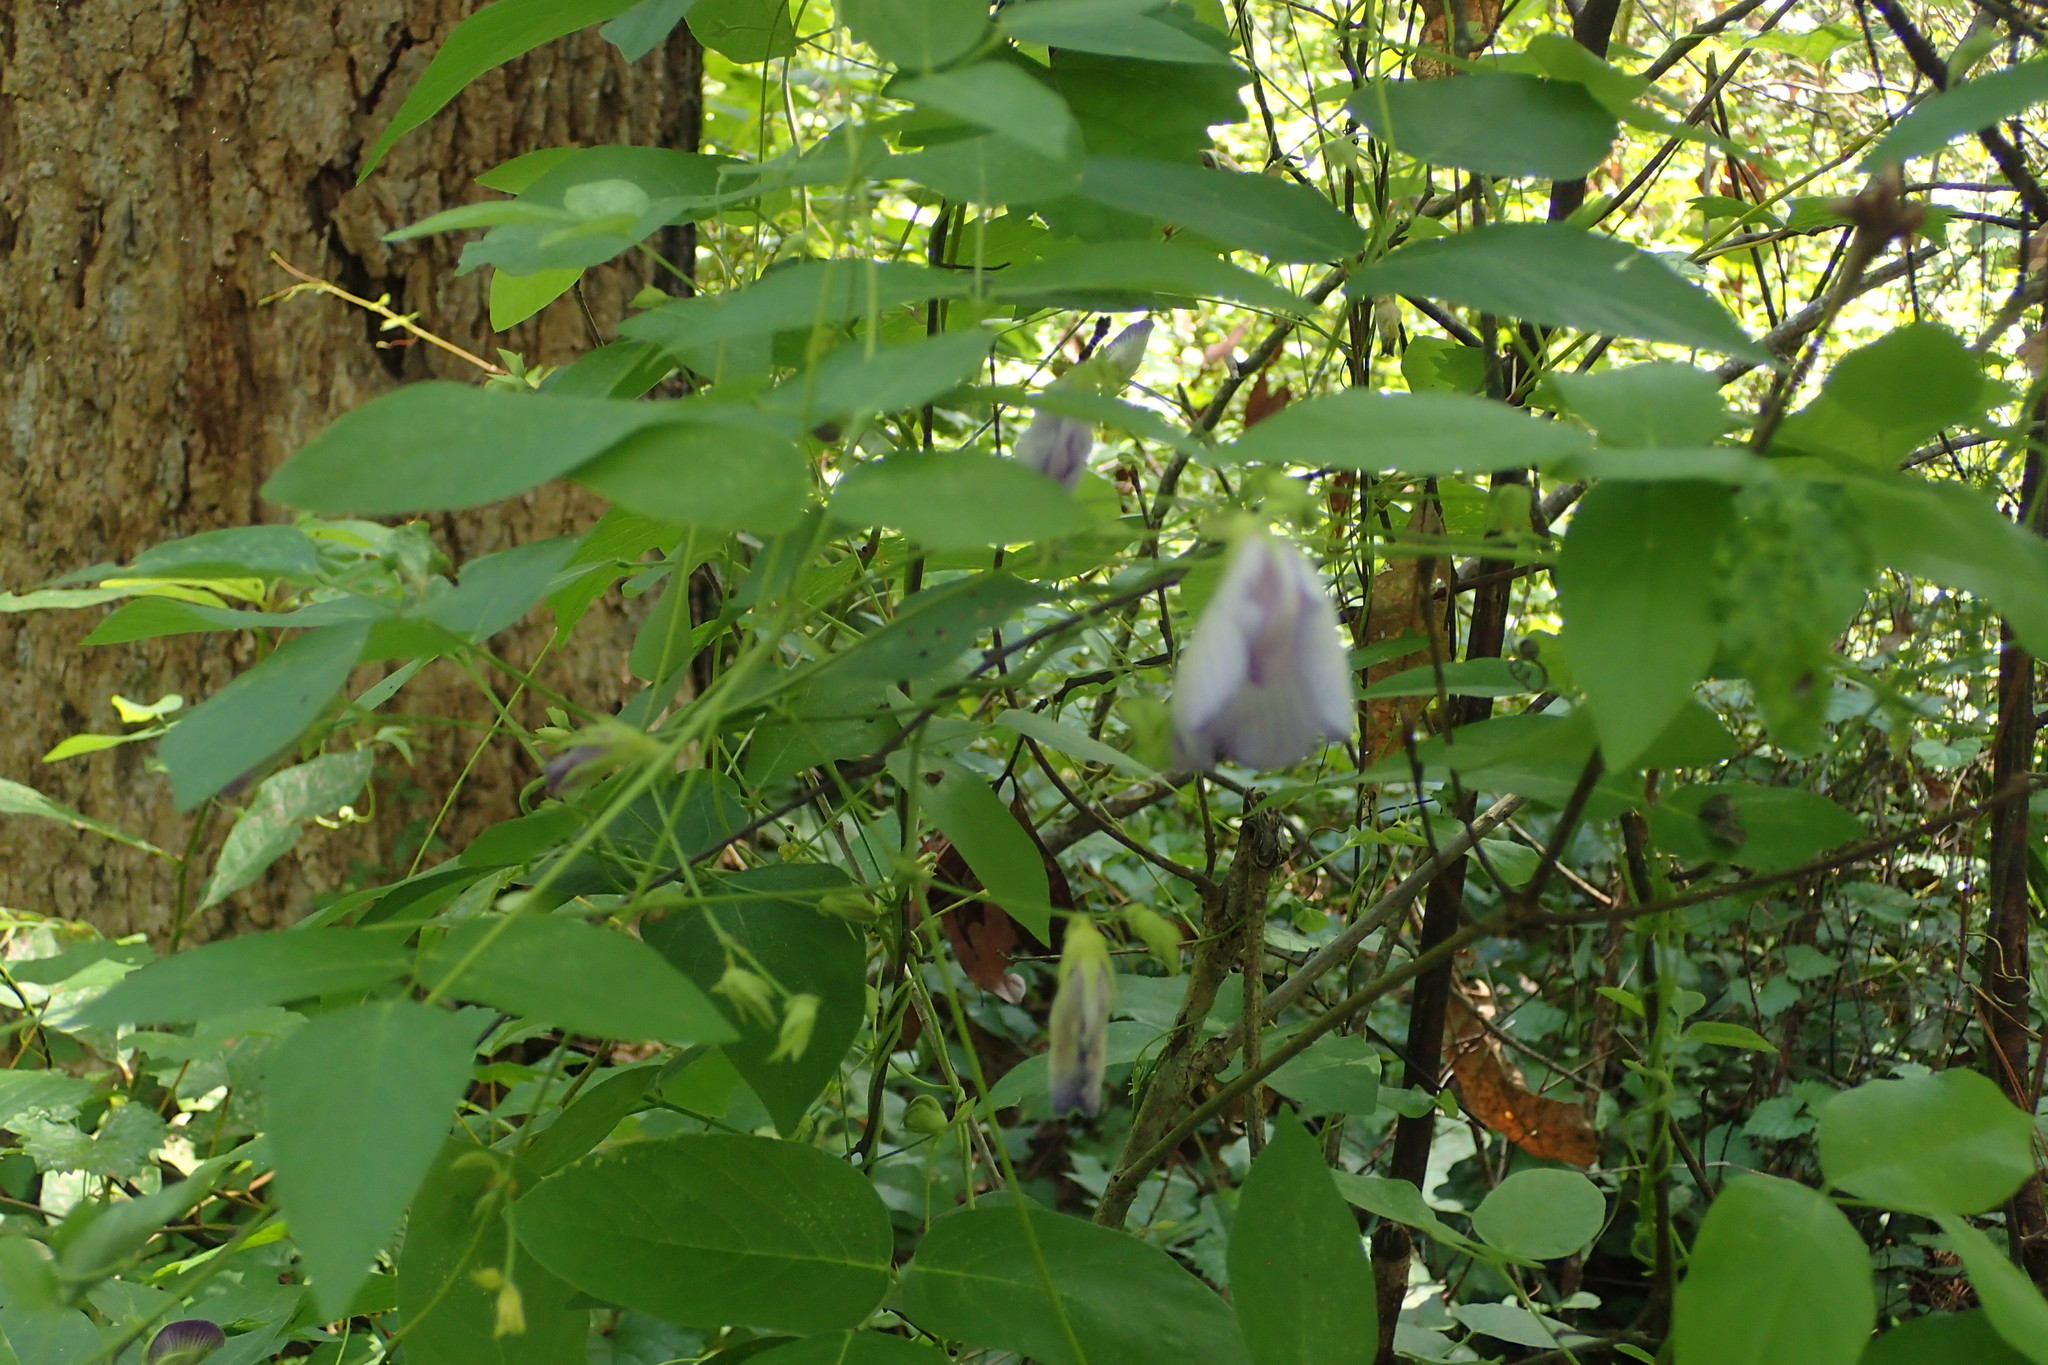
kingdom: Plantae
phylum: Tracheophyta
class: Magnoliopsida
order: Fabales
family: Fabaceae
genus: Centrosema
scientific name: Centrosema virginianum
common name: Butterfly-pea
